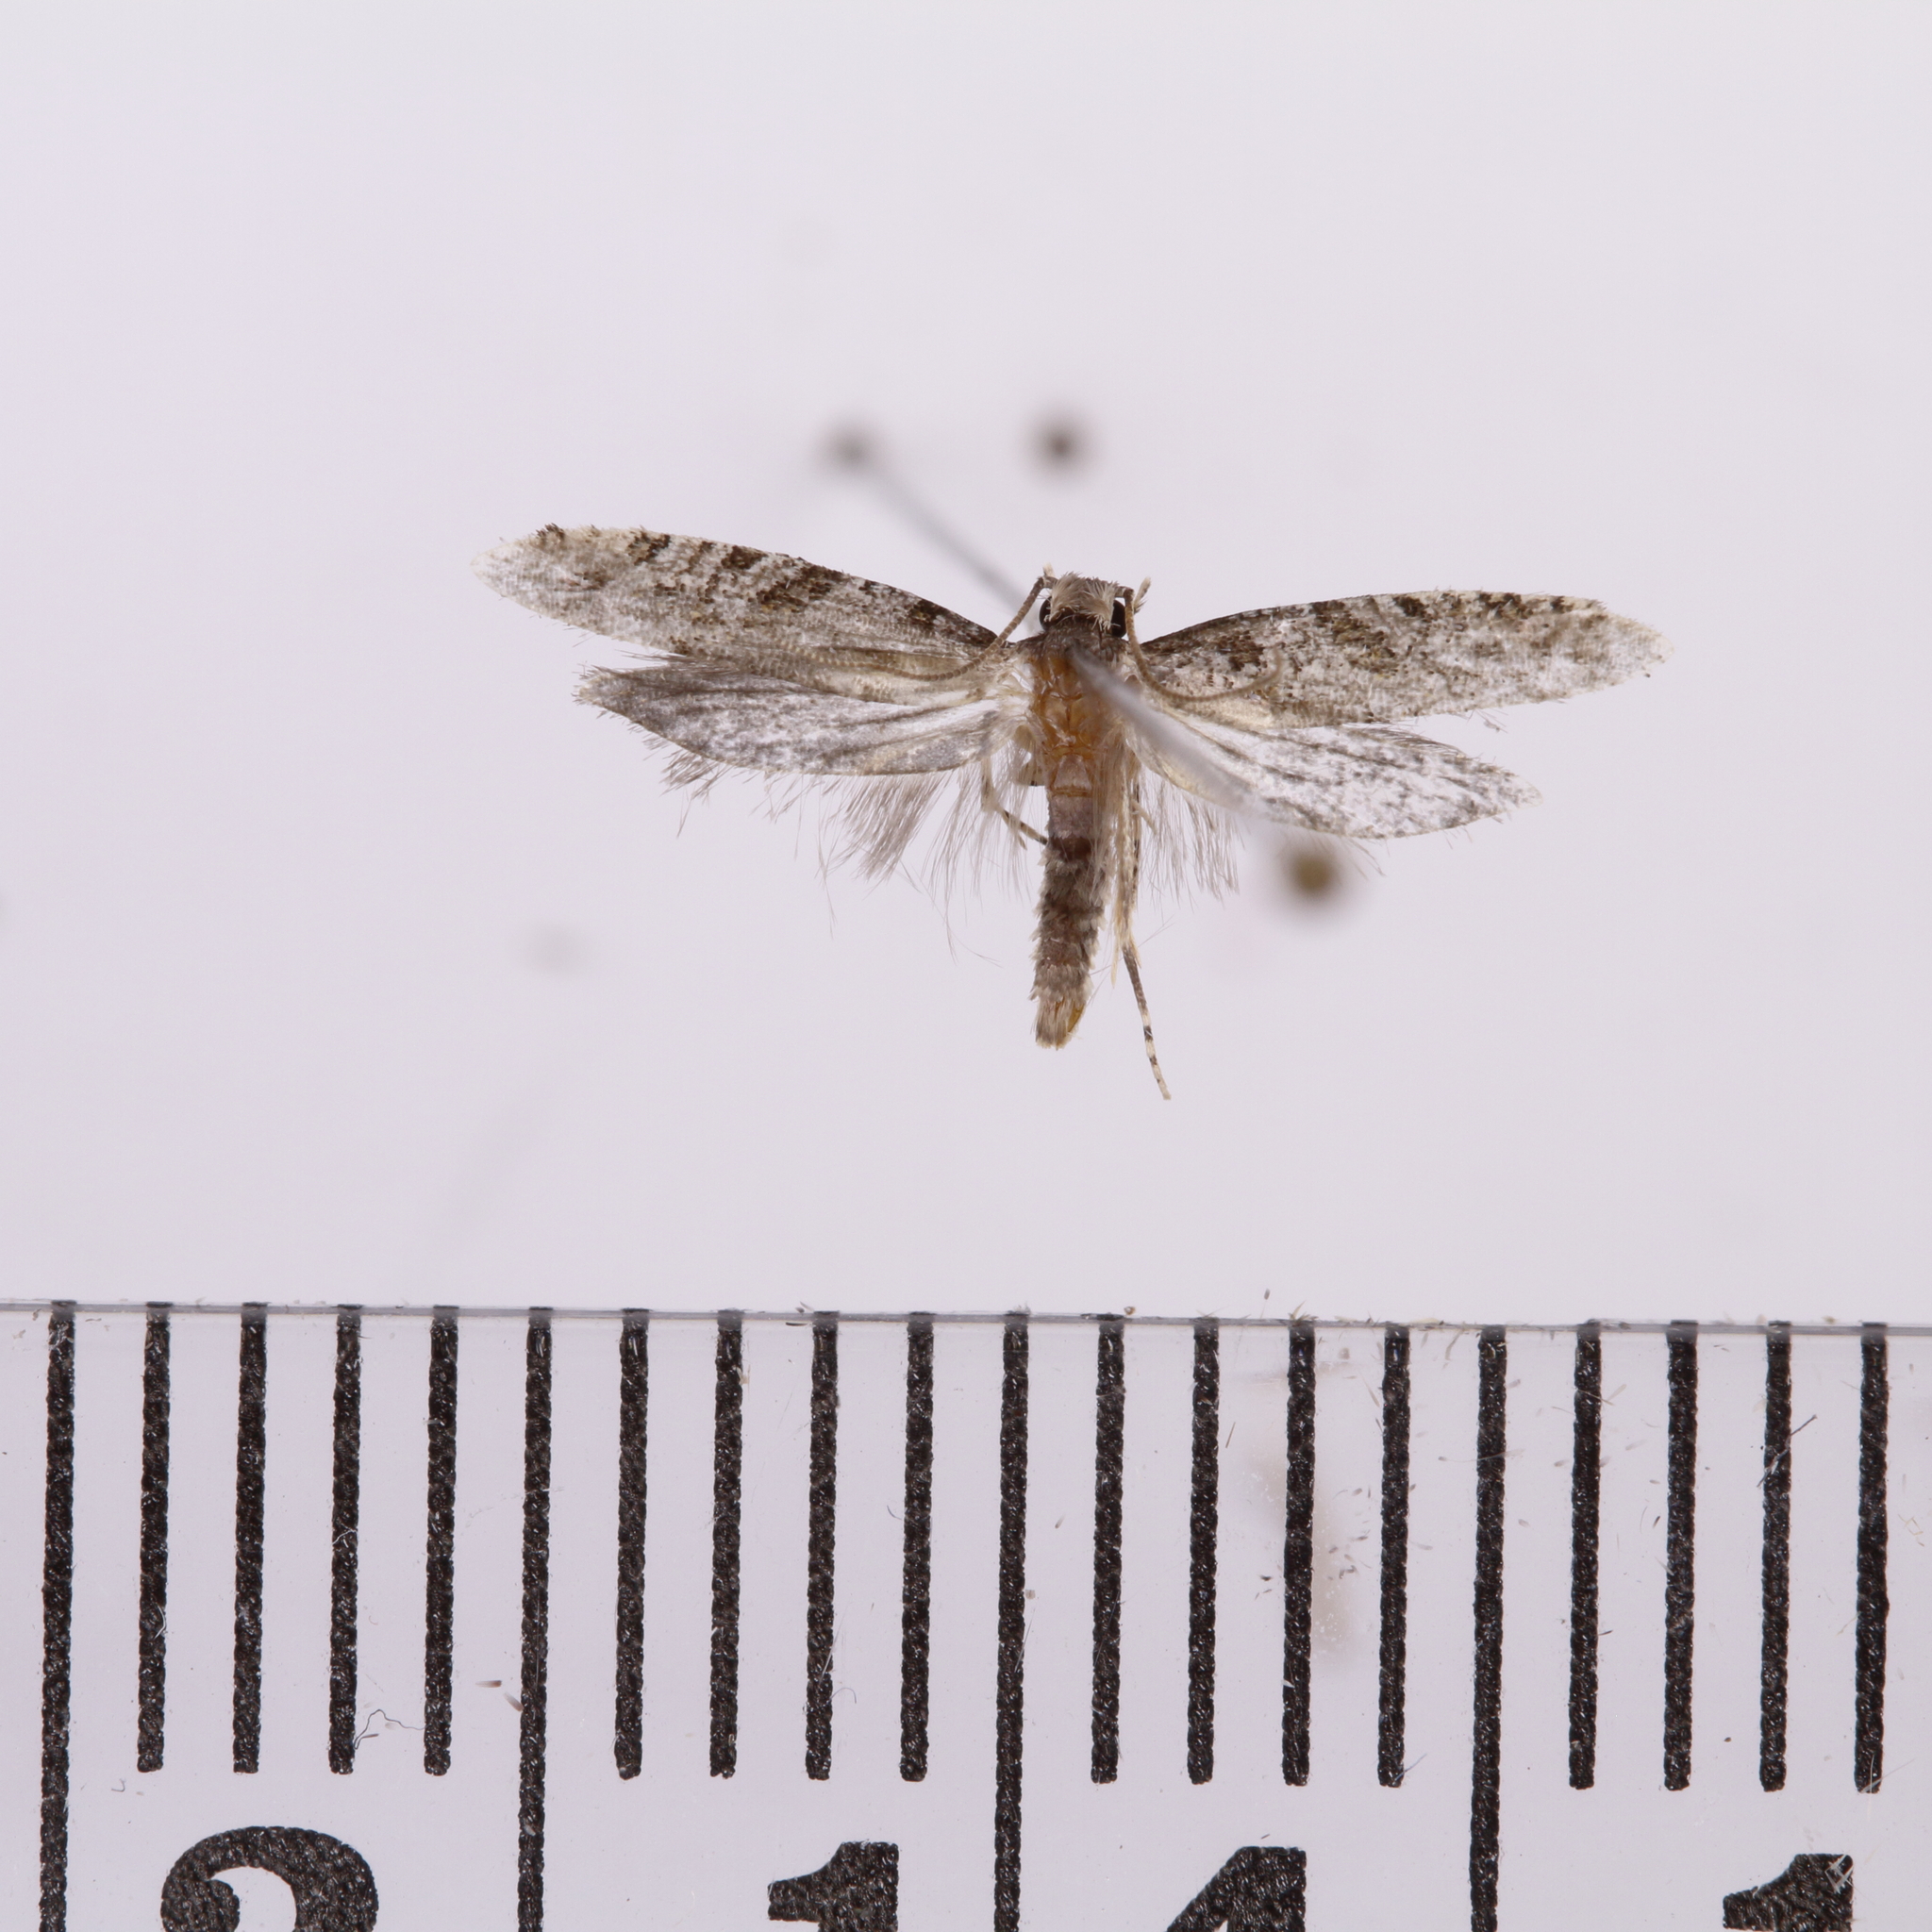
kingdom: Animalia
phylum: Arthropoda
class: Insecta
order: Lepidoptera
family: Tineidae
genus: Archyala
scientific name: Archyala paraglypta
